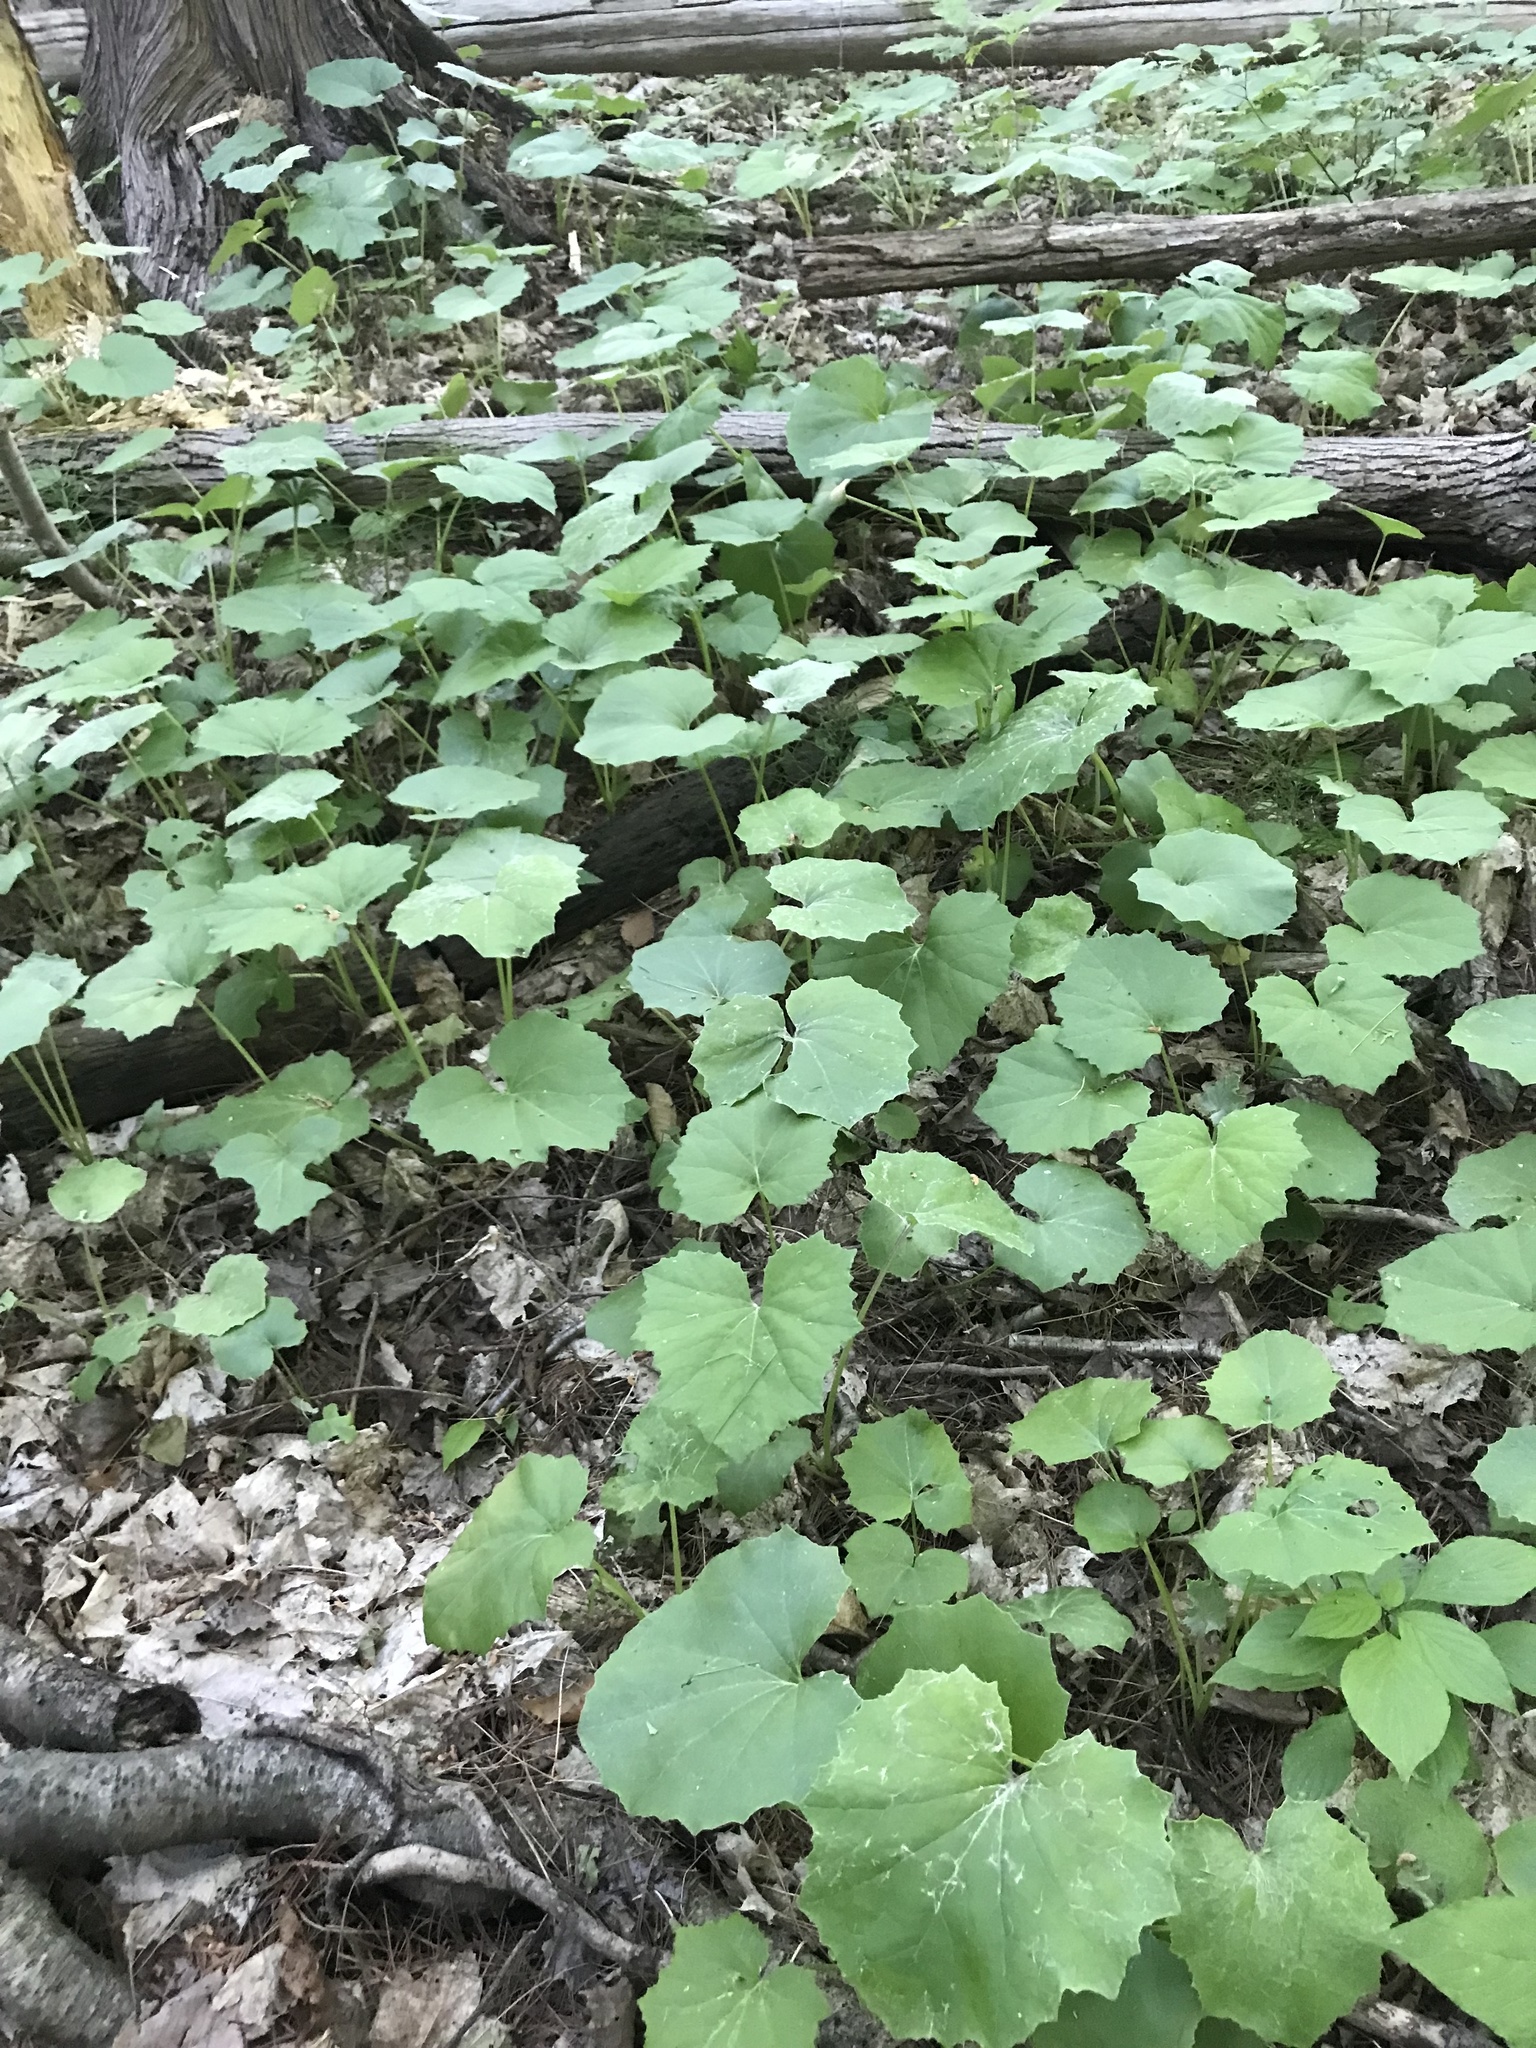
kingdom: Plantae
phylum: Tracheophyta
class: Magnoliopsida
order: Asterales
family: Asteraceae
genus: Tussilago
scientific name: Tussilago farfara
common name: Coltsfoot
